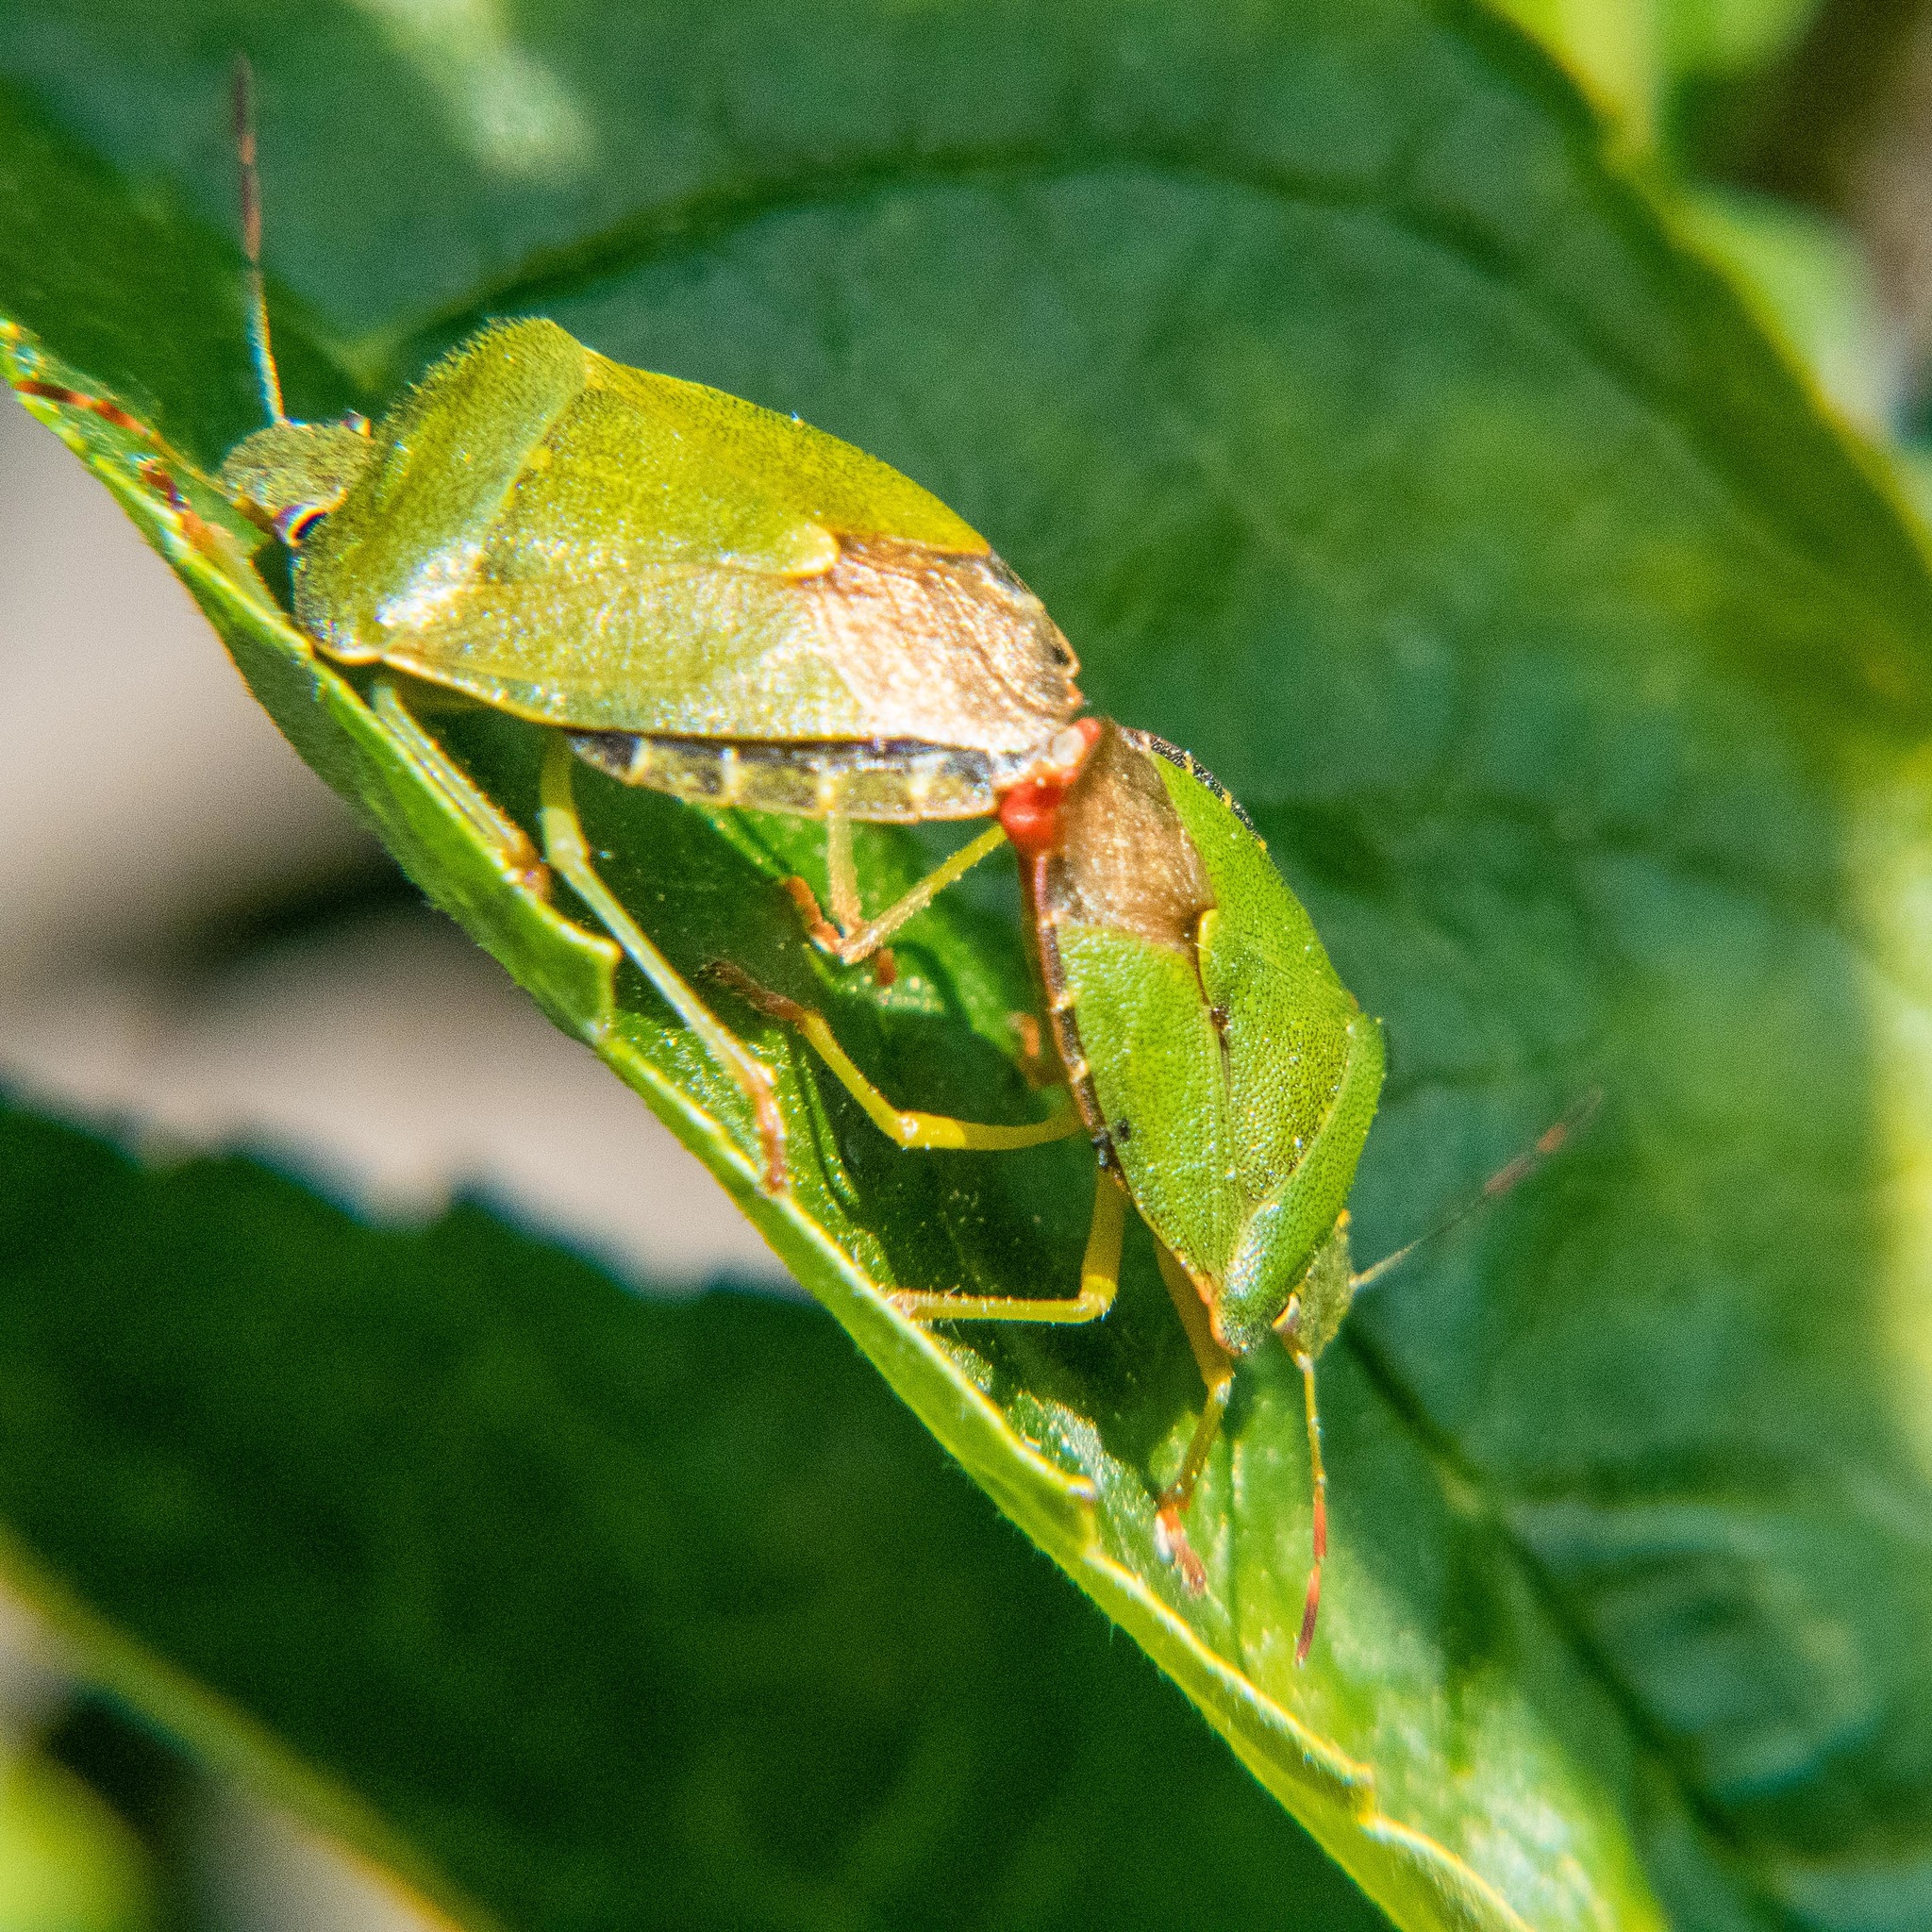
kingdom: Animalia
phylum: Arthropoda
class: Insecta
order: Hemiptera
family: Pentatomidae
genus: Palomena
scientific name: Palomena prasina
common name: Green shieldbug
